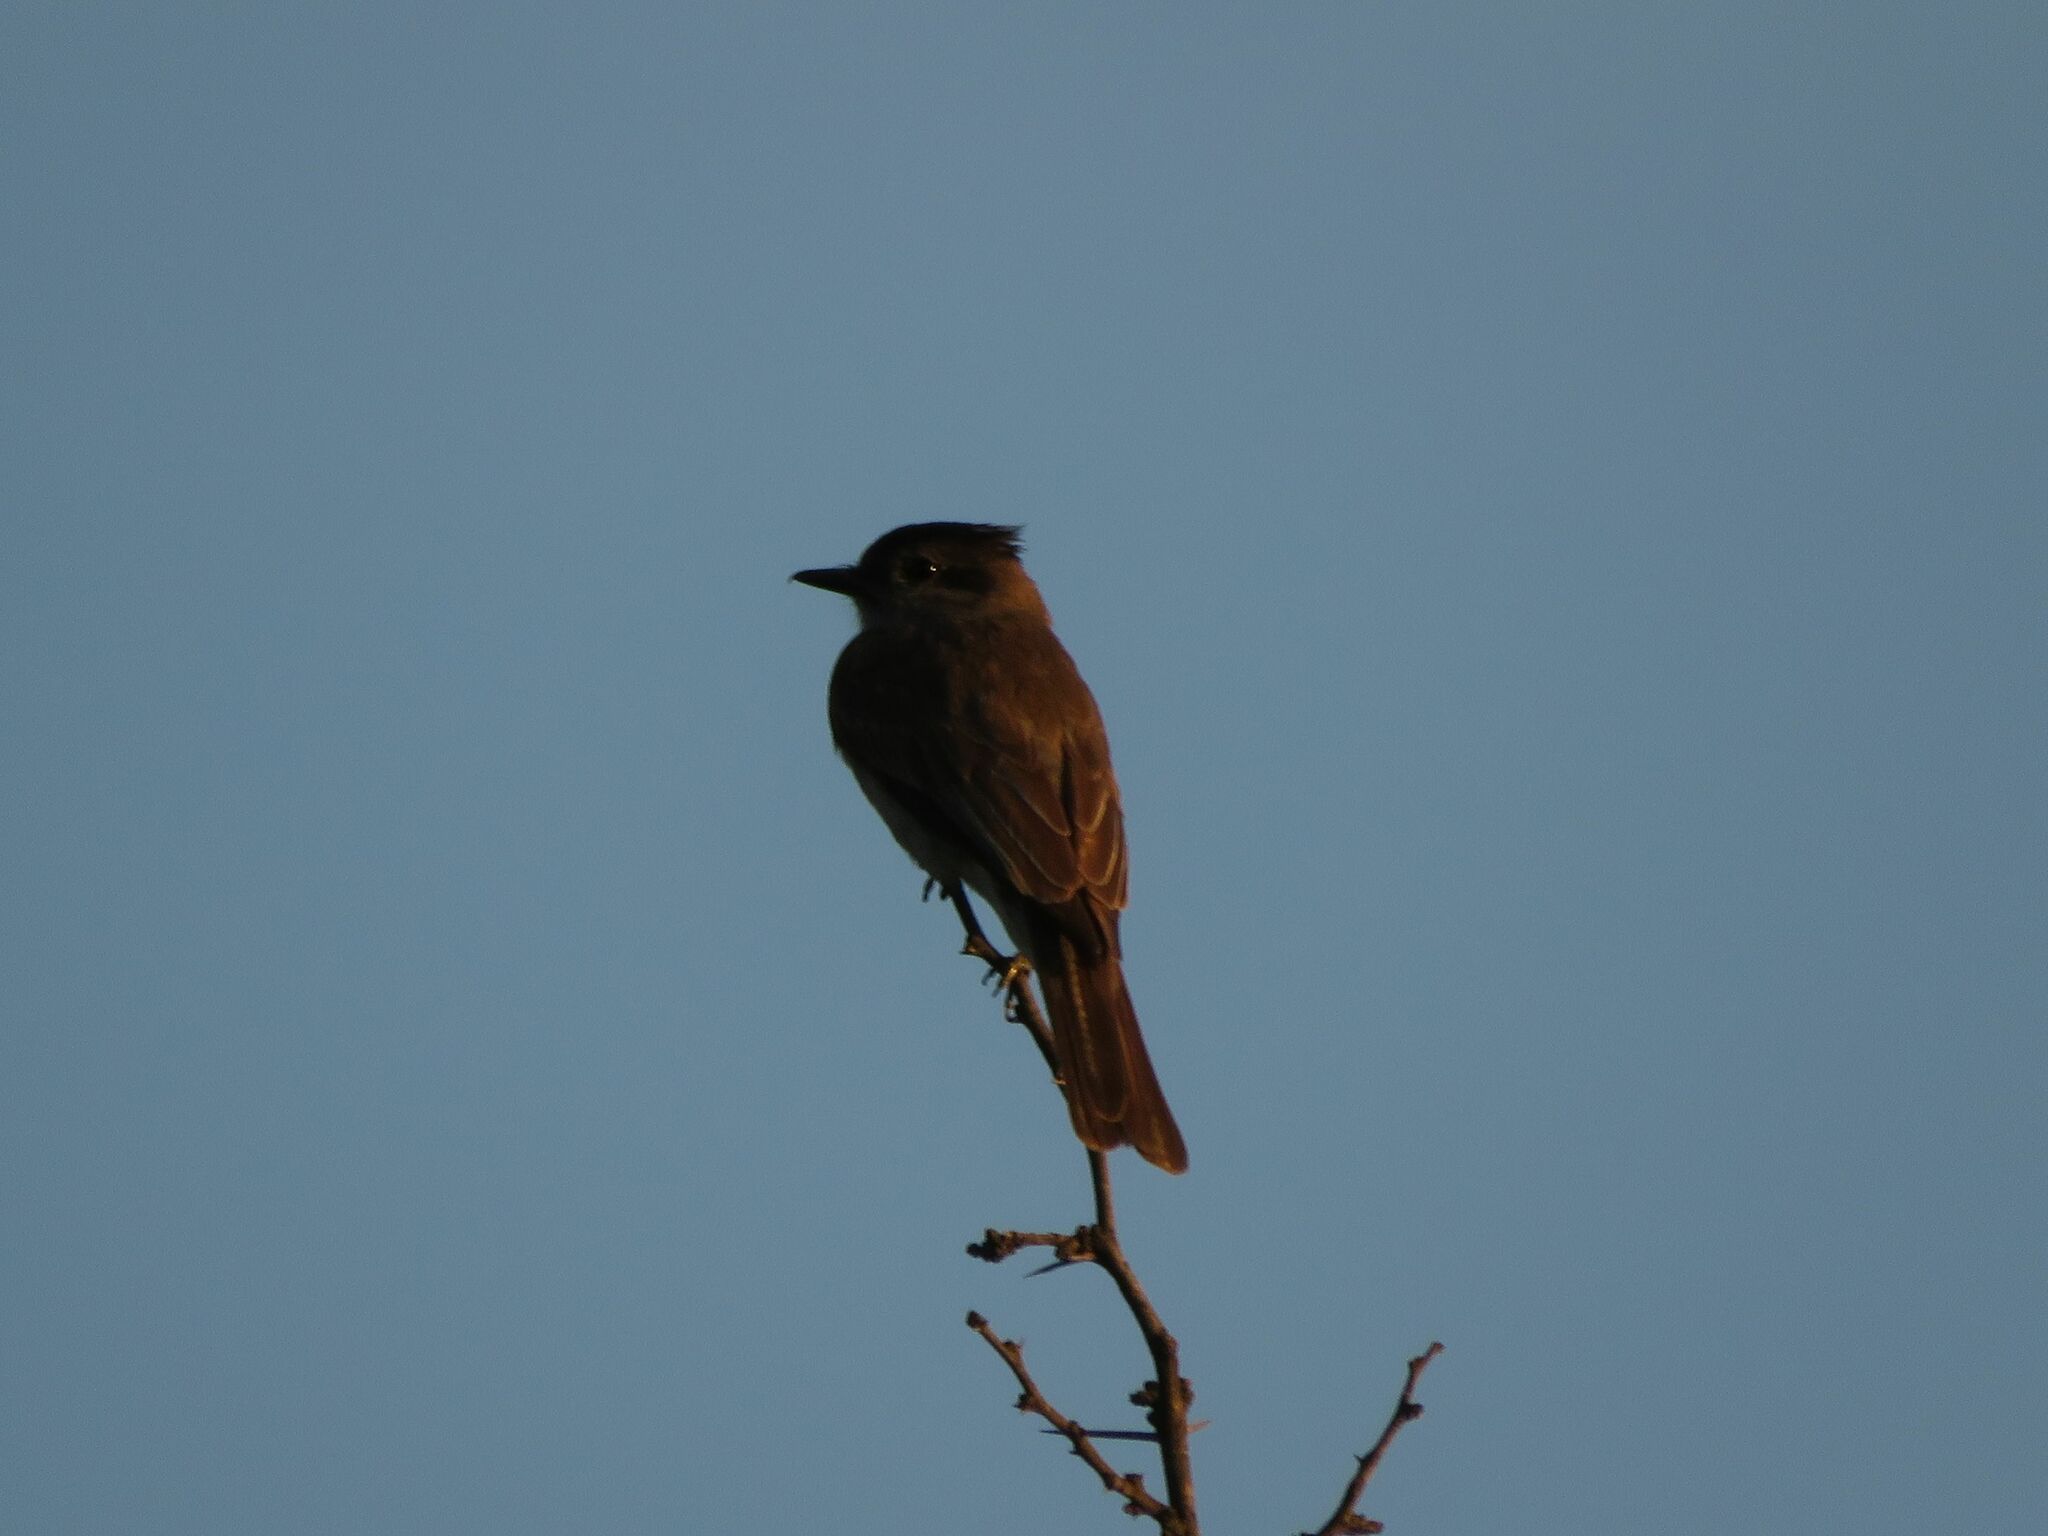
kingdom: Animalia
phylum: Chordata
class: Aves
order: Passeriformes
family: Tyrannidae
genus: Empidonomus
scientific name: Empidonomus aurantioatrocristatus
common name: Crowned slaty flycatcher
